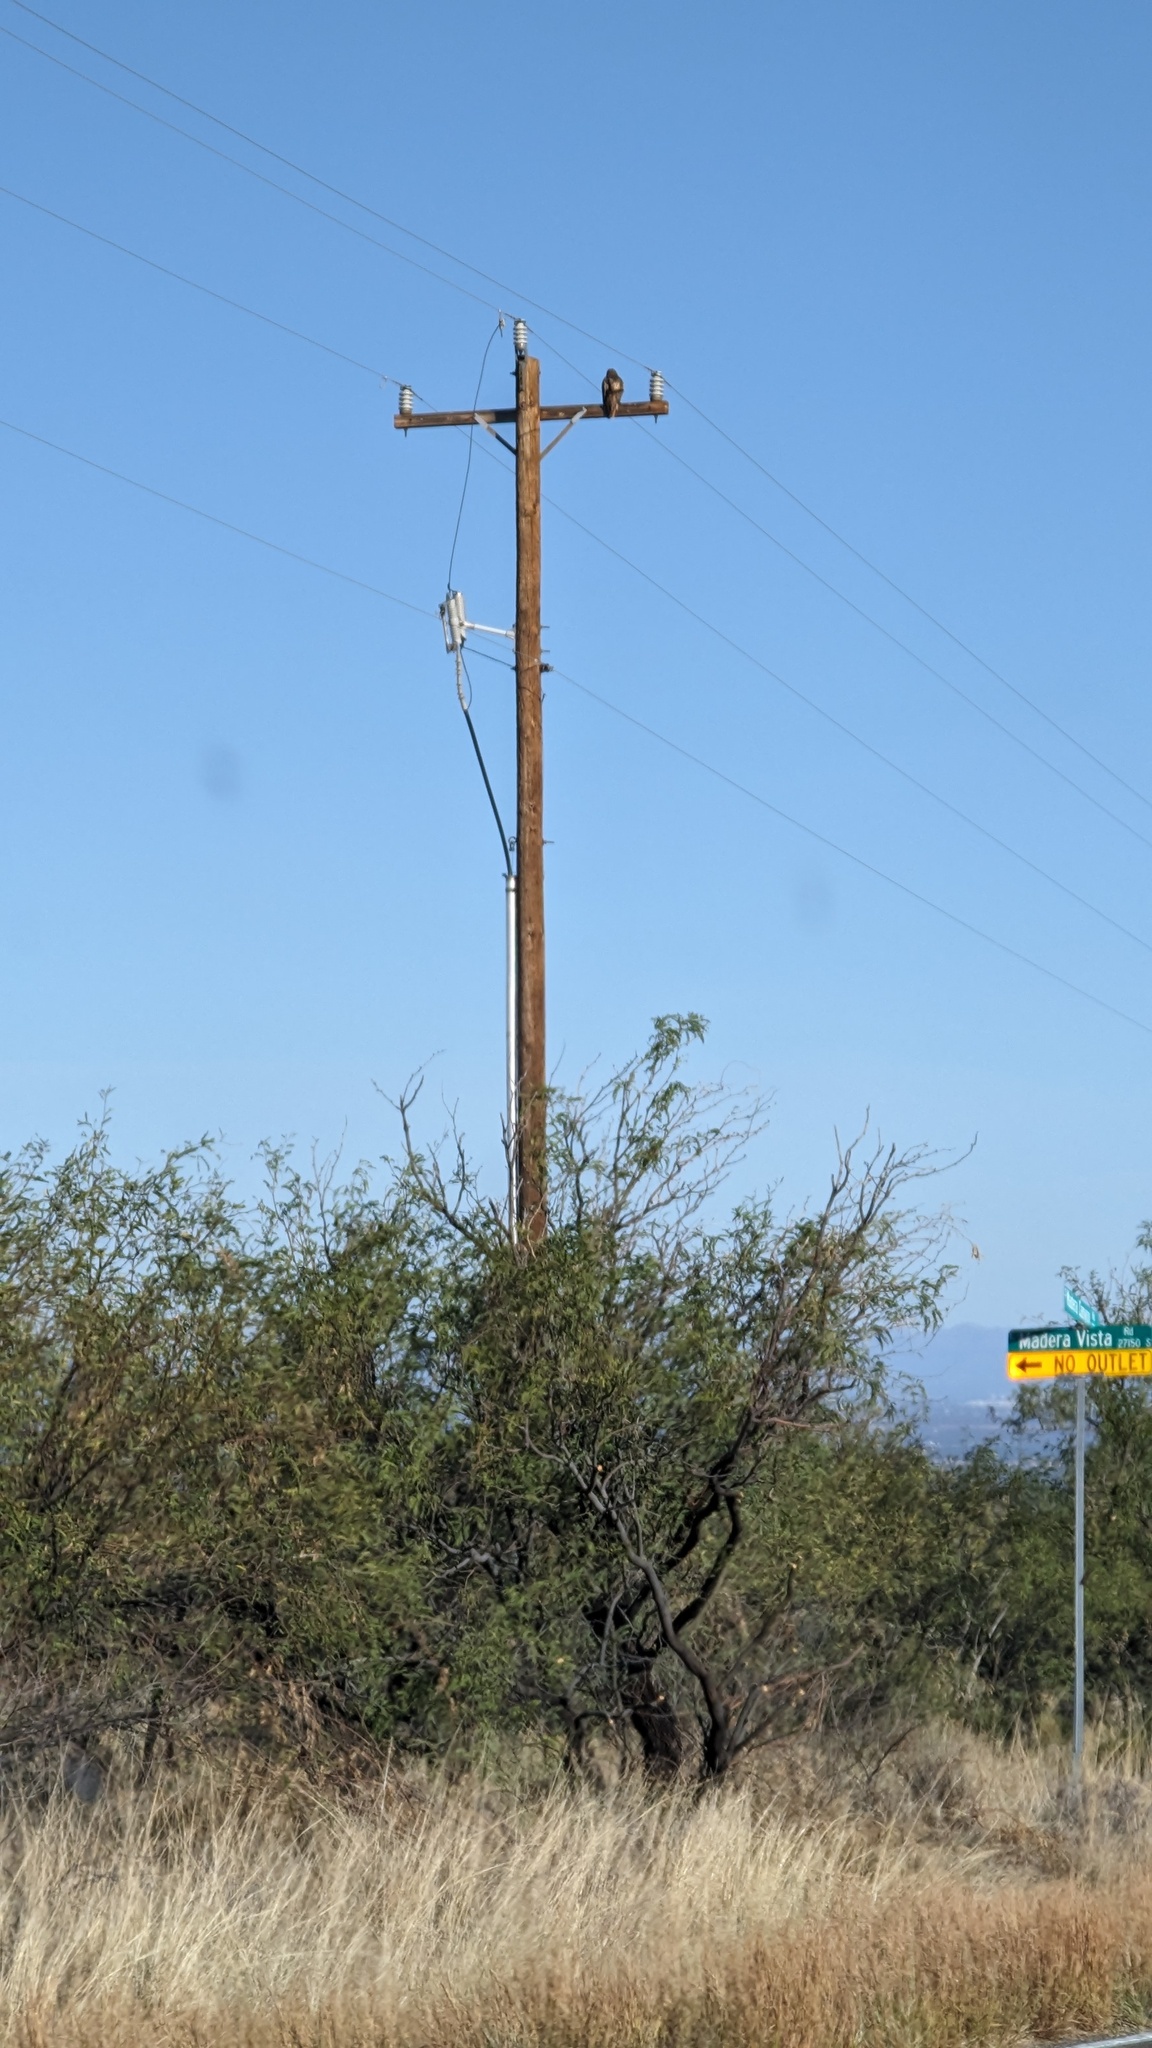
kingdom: Animalia
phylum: Chordata
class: Aves
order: Accipitriformes
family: Accipitridae
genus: Buteo
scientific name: Buteo jamaicensis
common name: Red-tailed hawk
